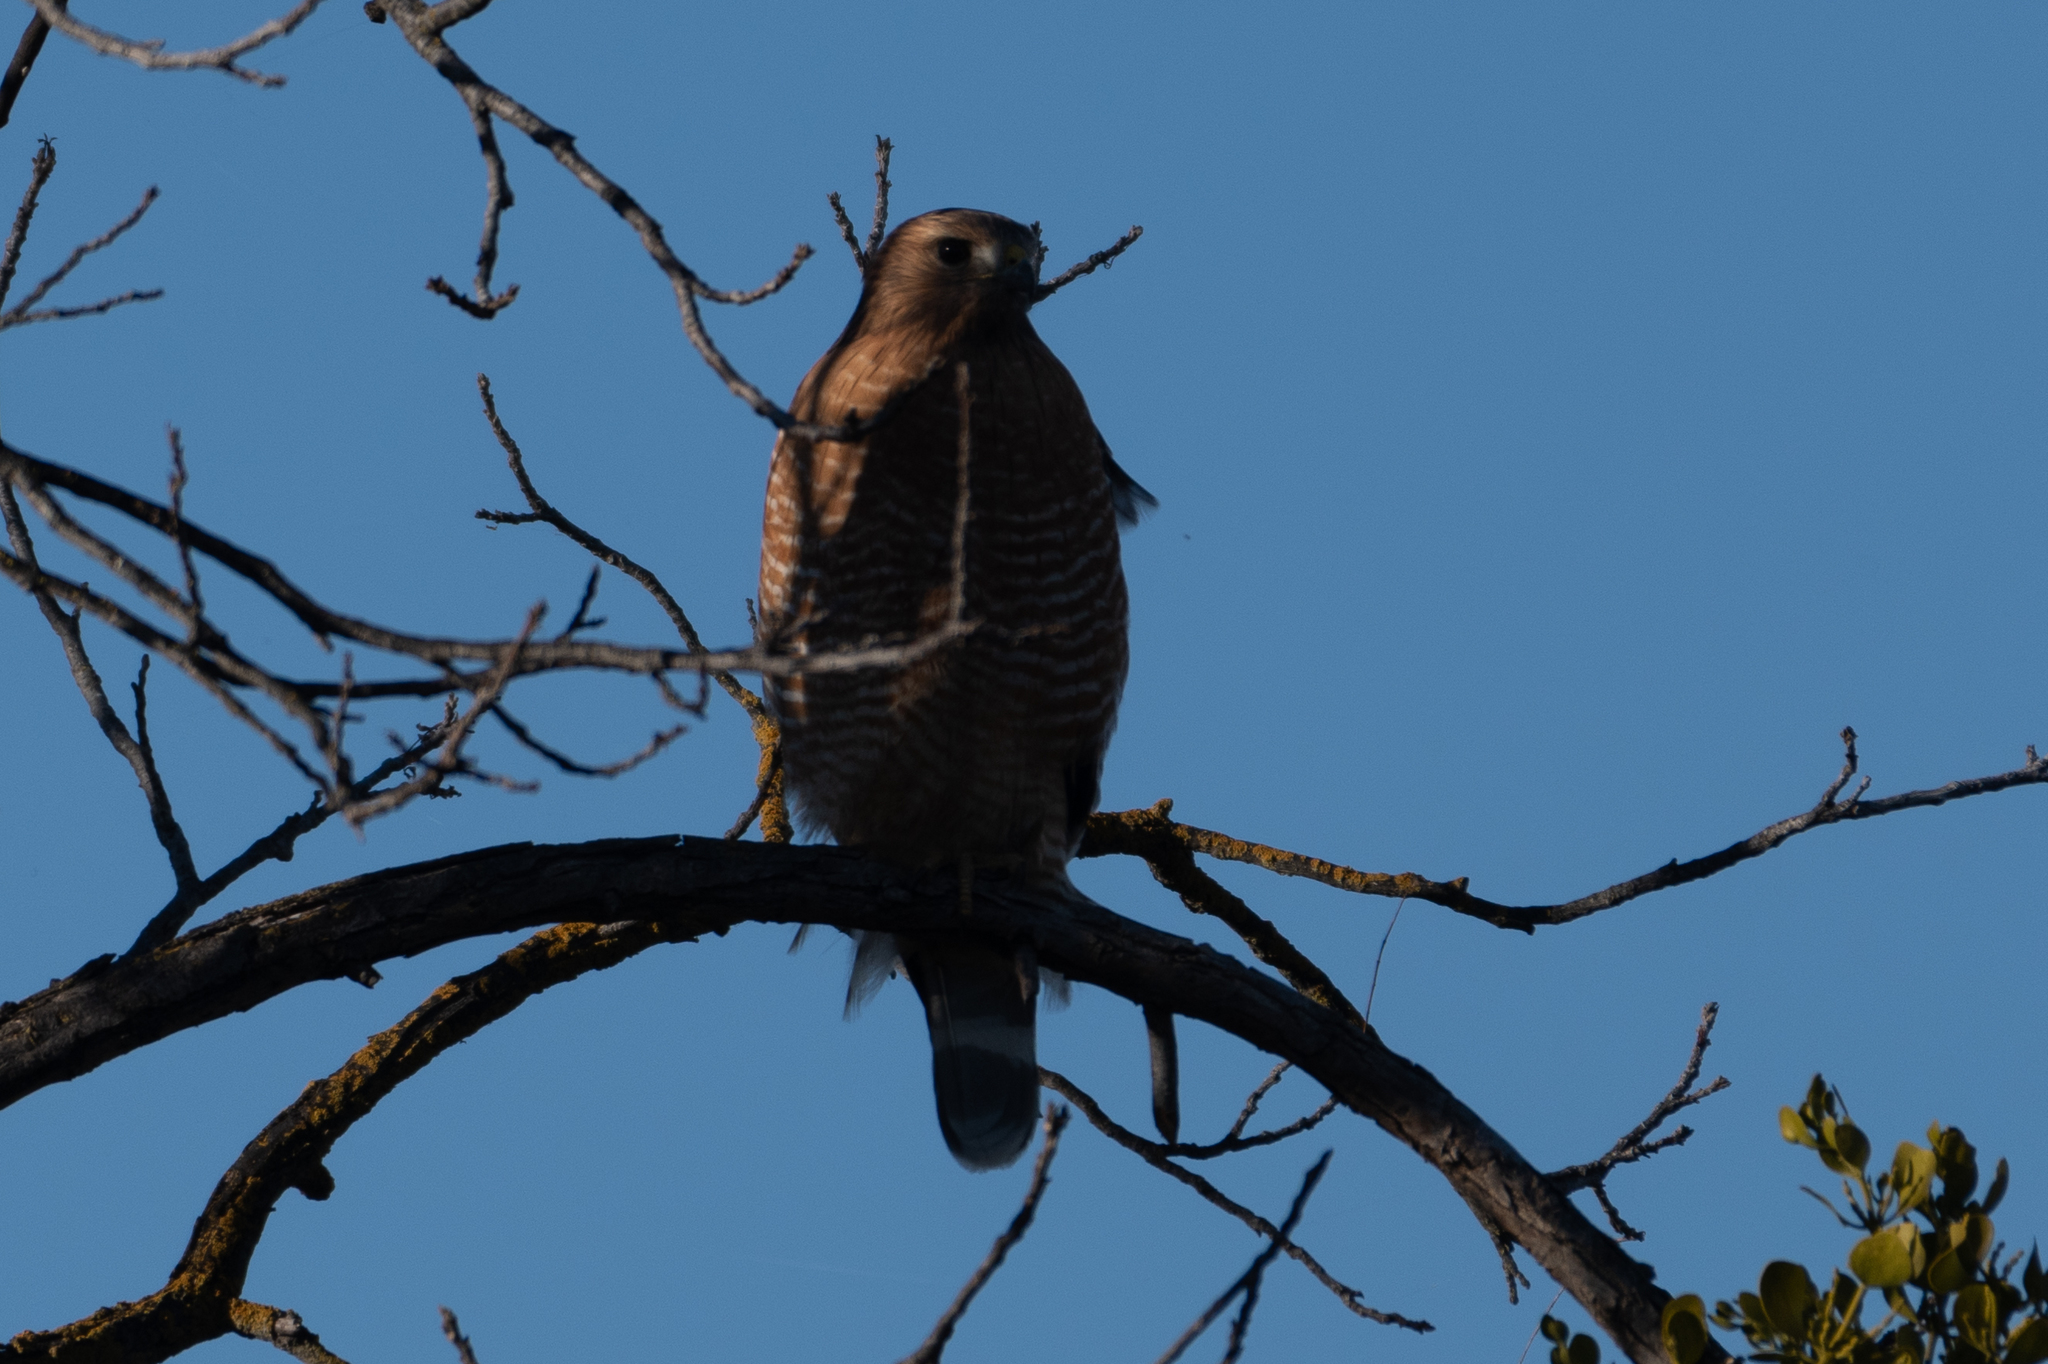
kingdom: Animalia
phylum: Chordata
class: Aves
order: Accipitriformes
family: Accipitridae
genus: Buteo
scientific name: Buteo lineatus
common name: Red-shouldered hawk
